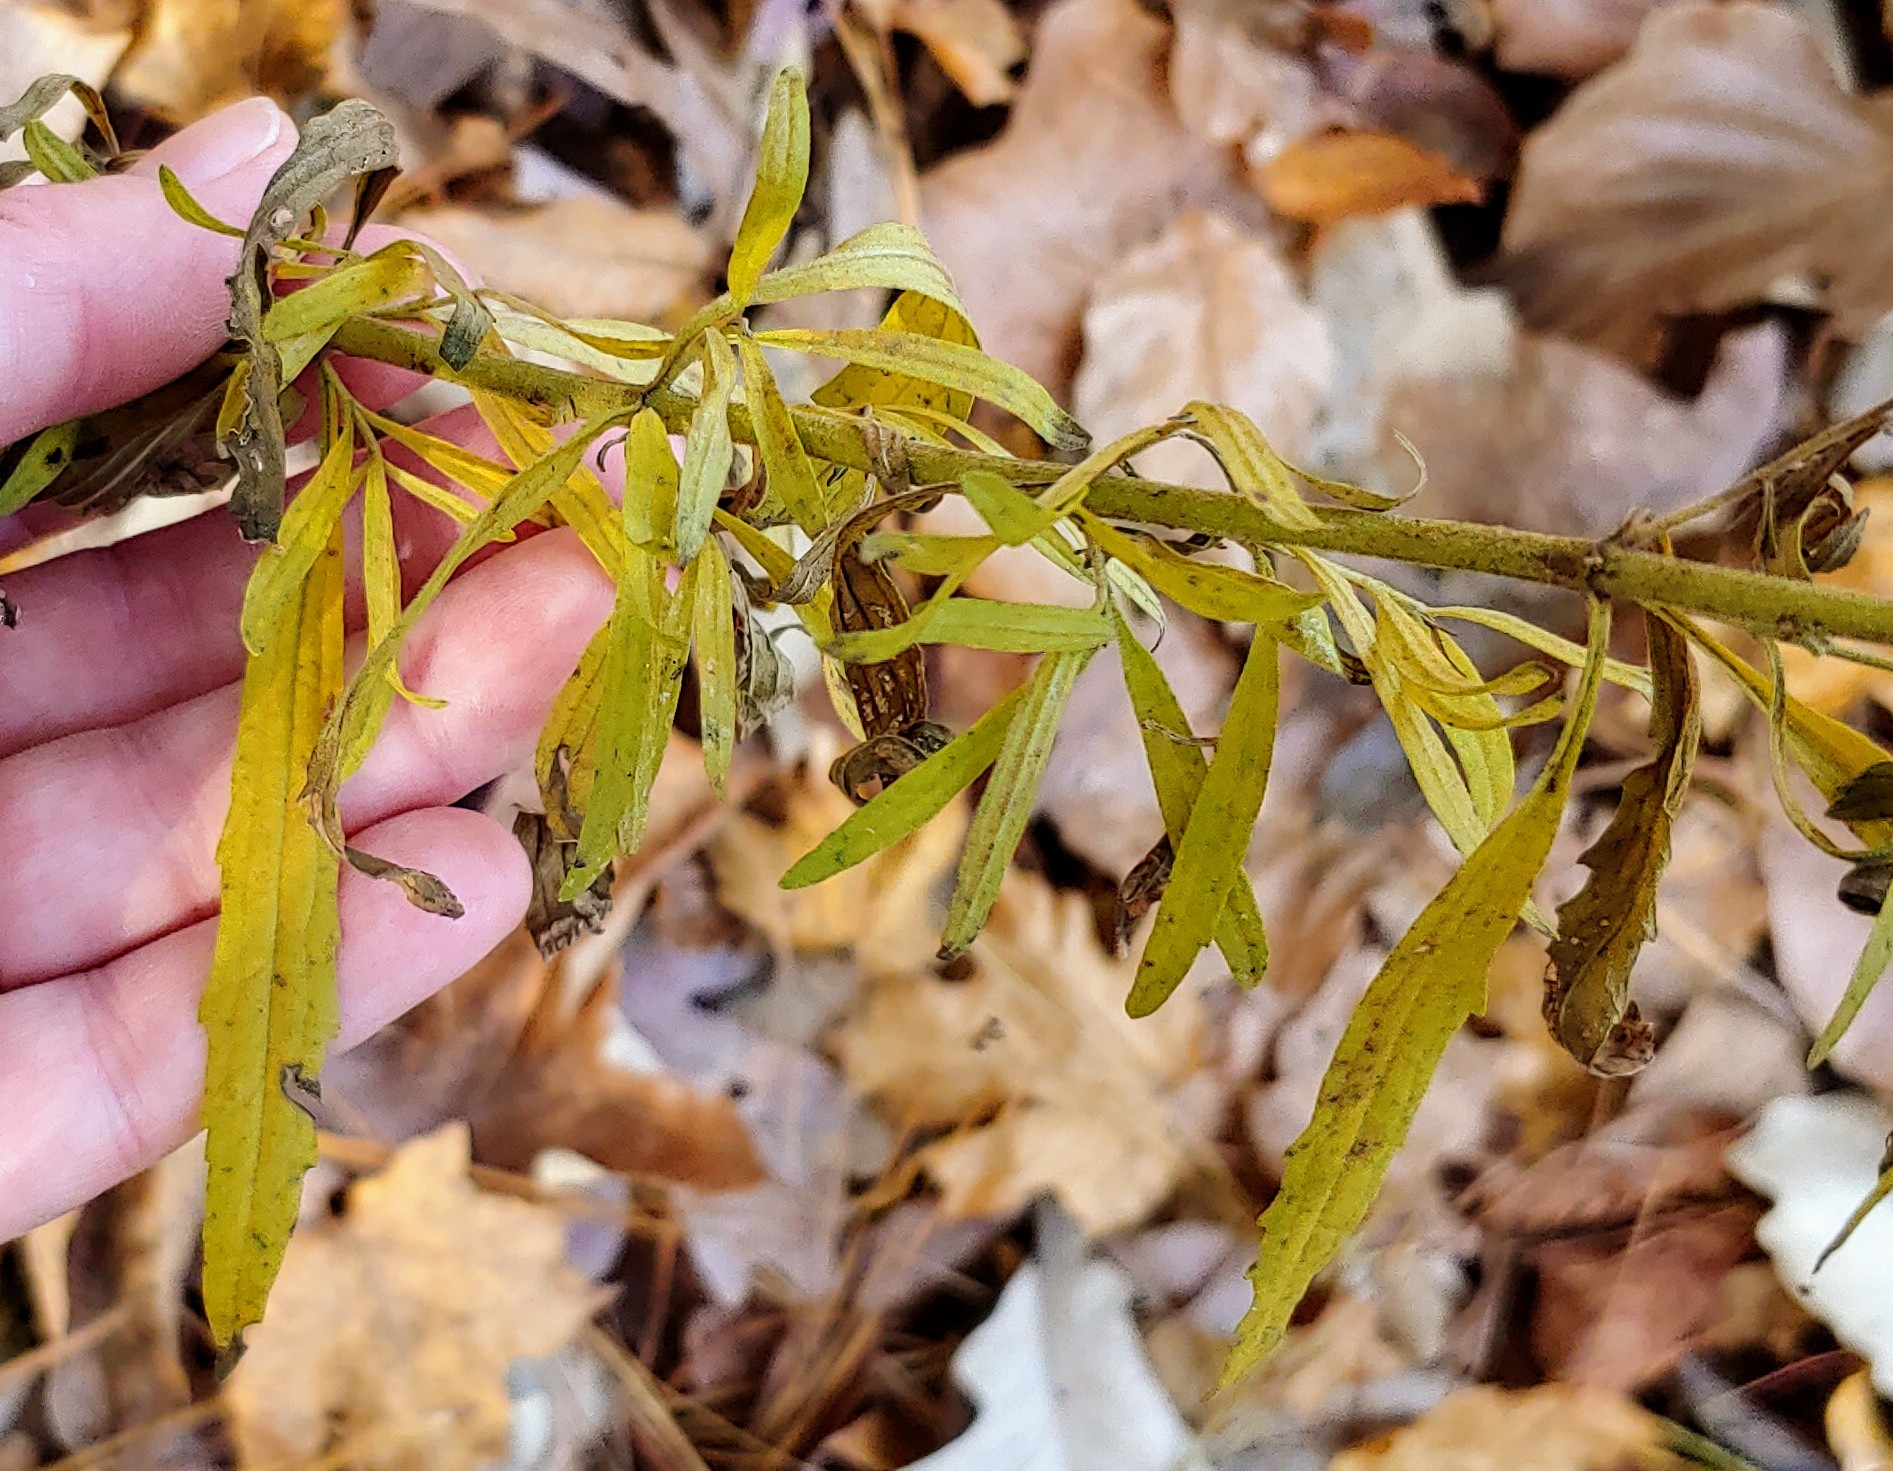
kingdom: Plantae
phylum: Tracheophyta
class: Magnoliopsida
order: Asterales
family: Asteraceae
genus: Eupatorium
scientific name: Eupatorium torreyanum
